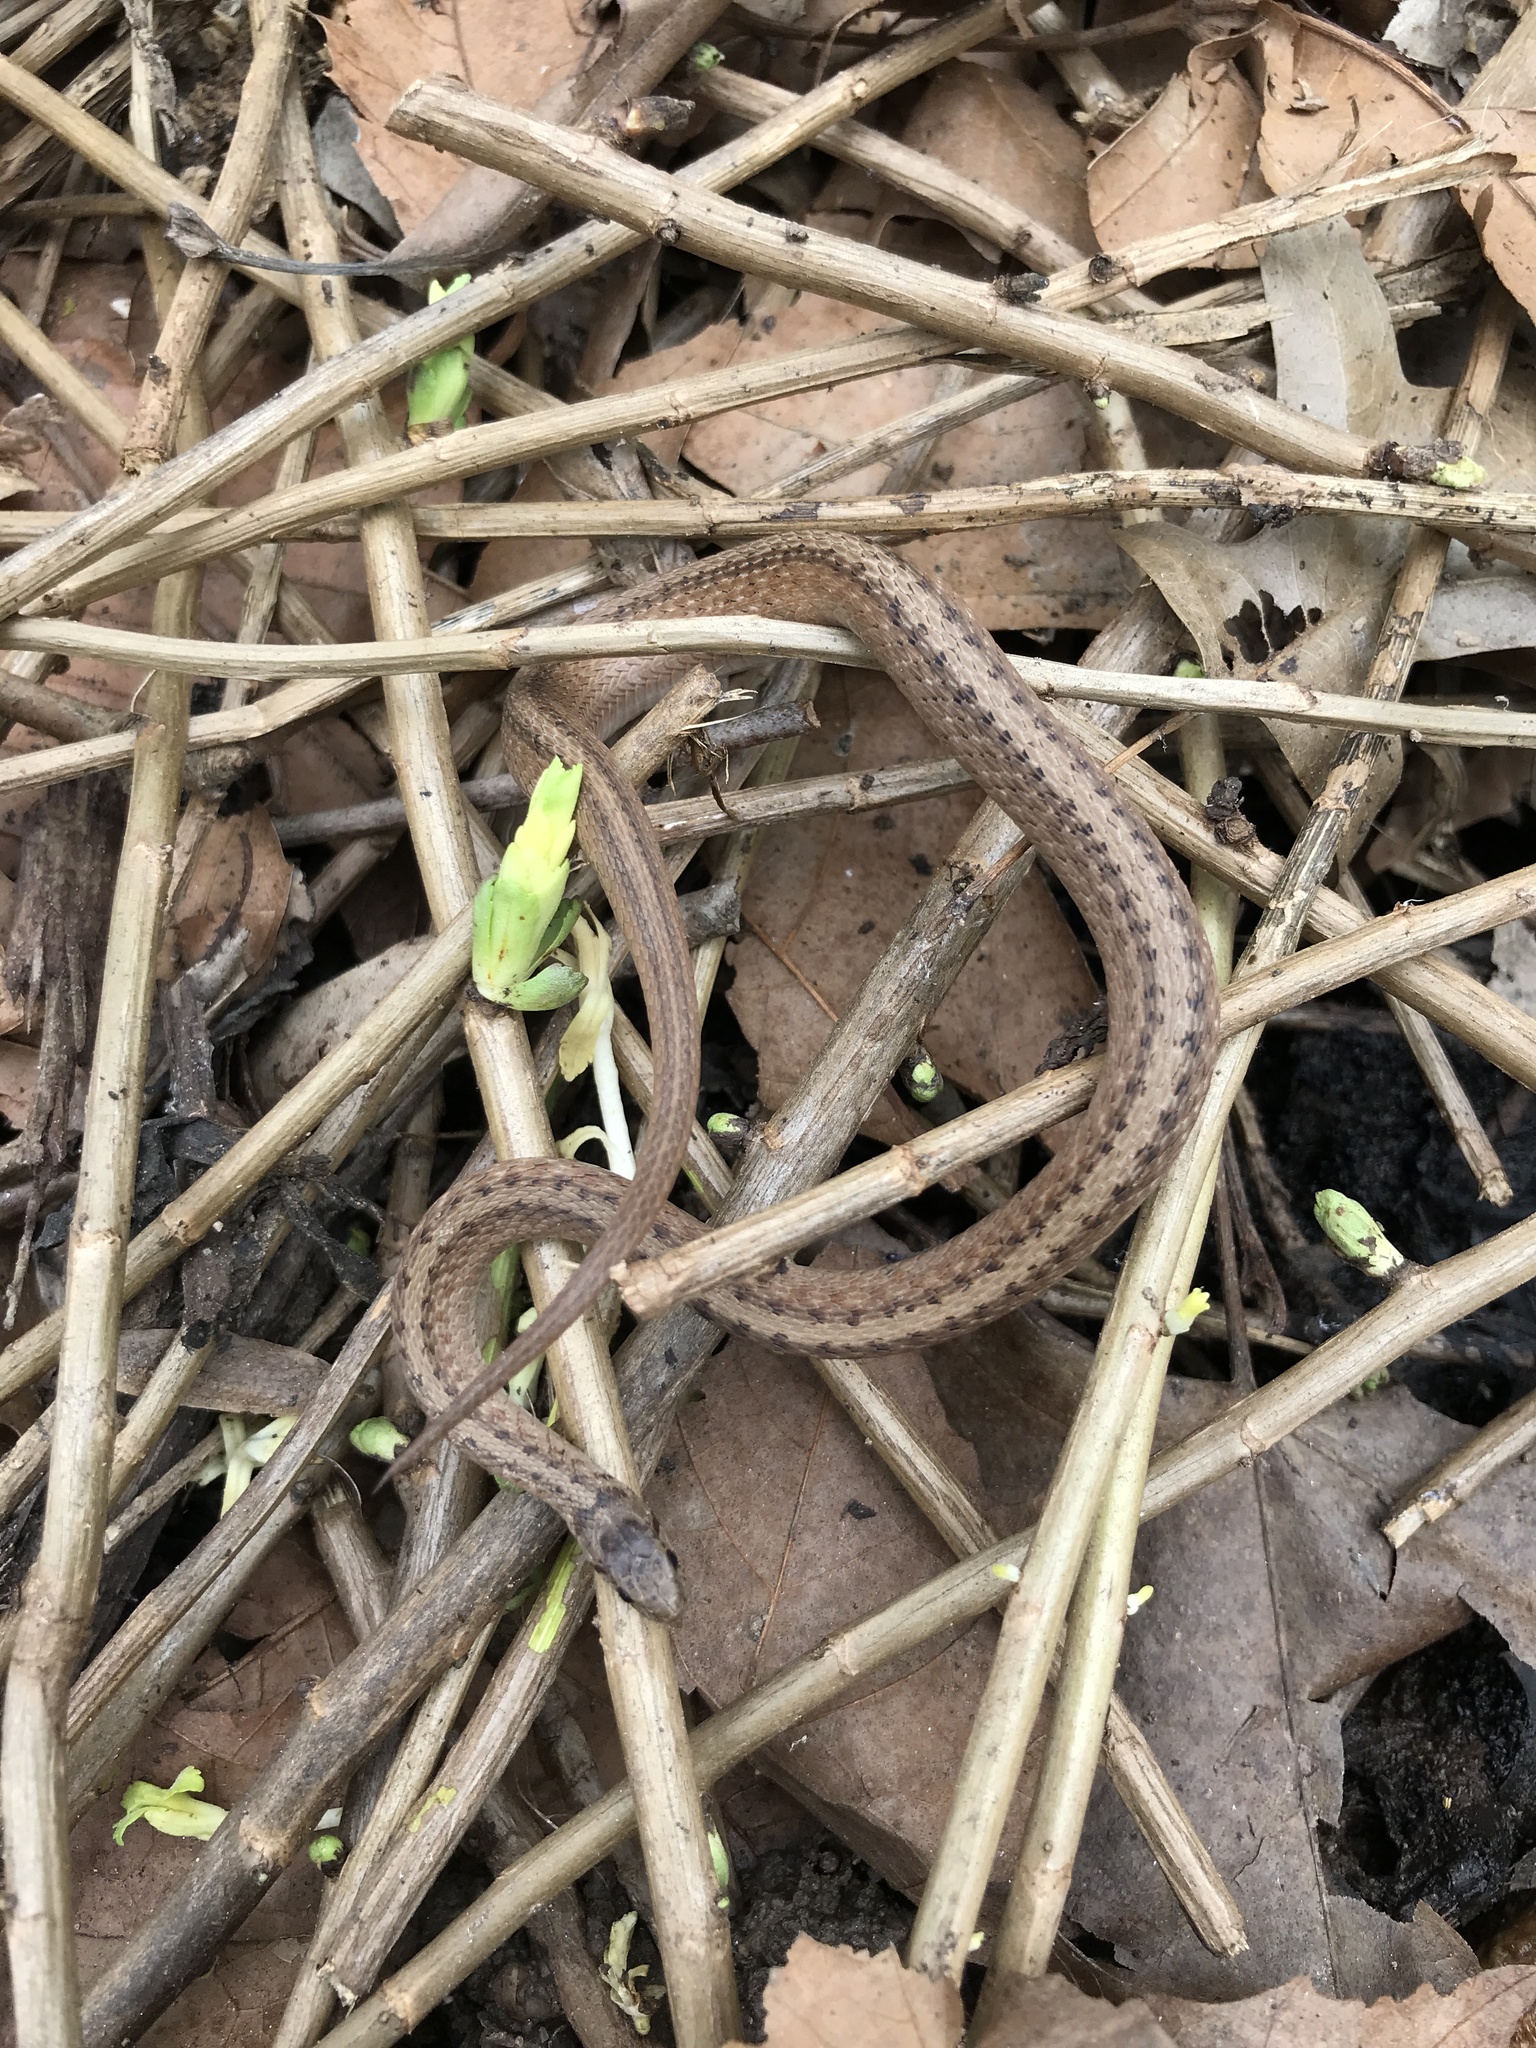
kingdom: Animalia
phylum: Chordata
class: Squamata
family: Colubridae
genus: Storeria
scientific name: Storeria dekayi
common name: (dekay’s) brown snake
